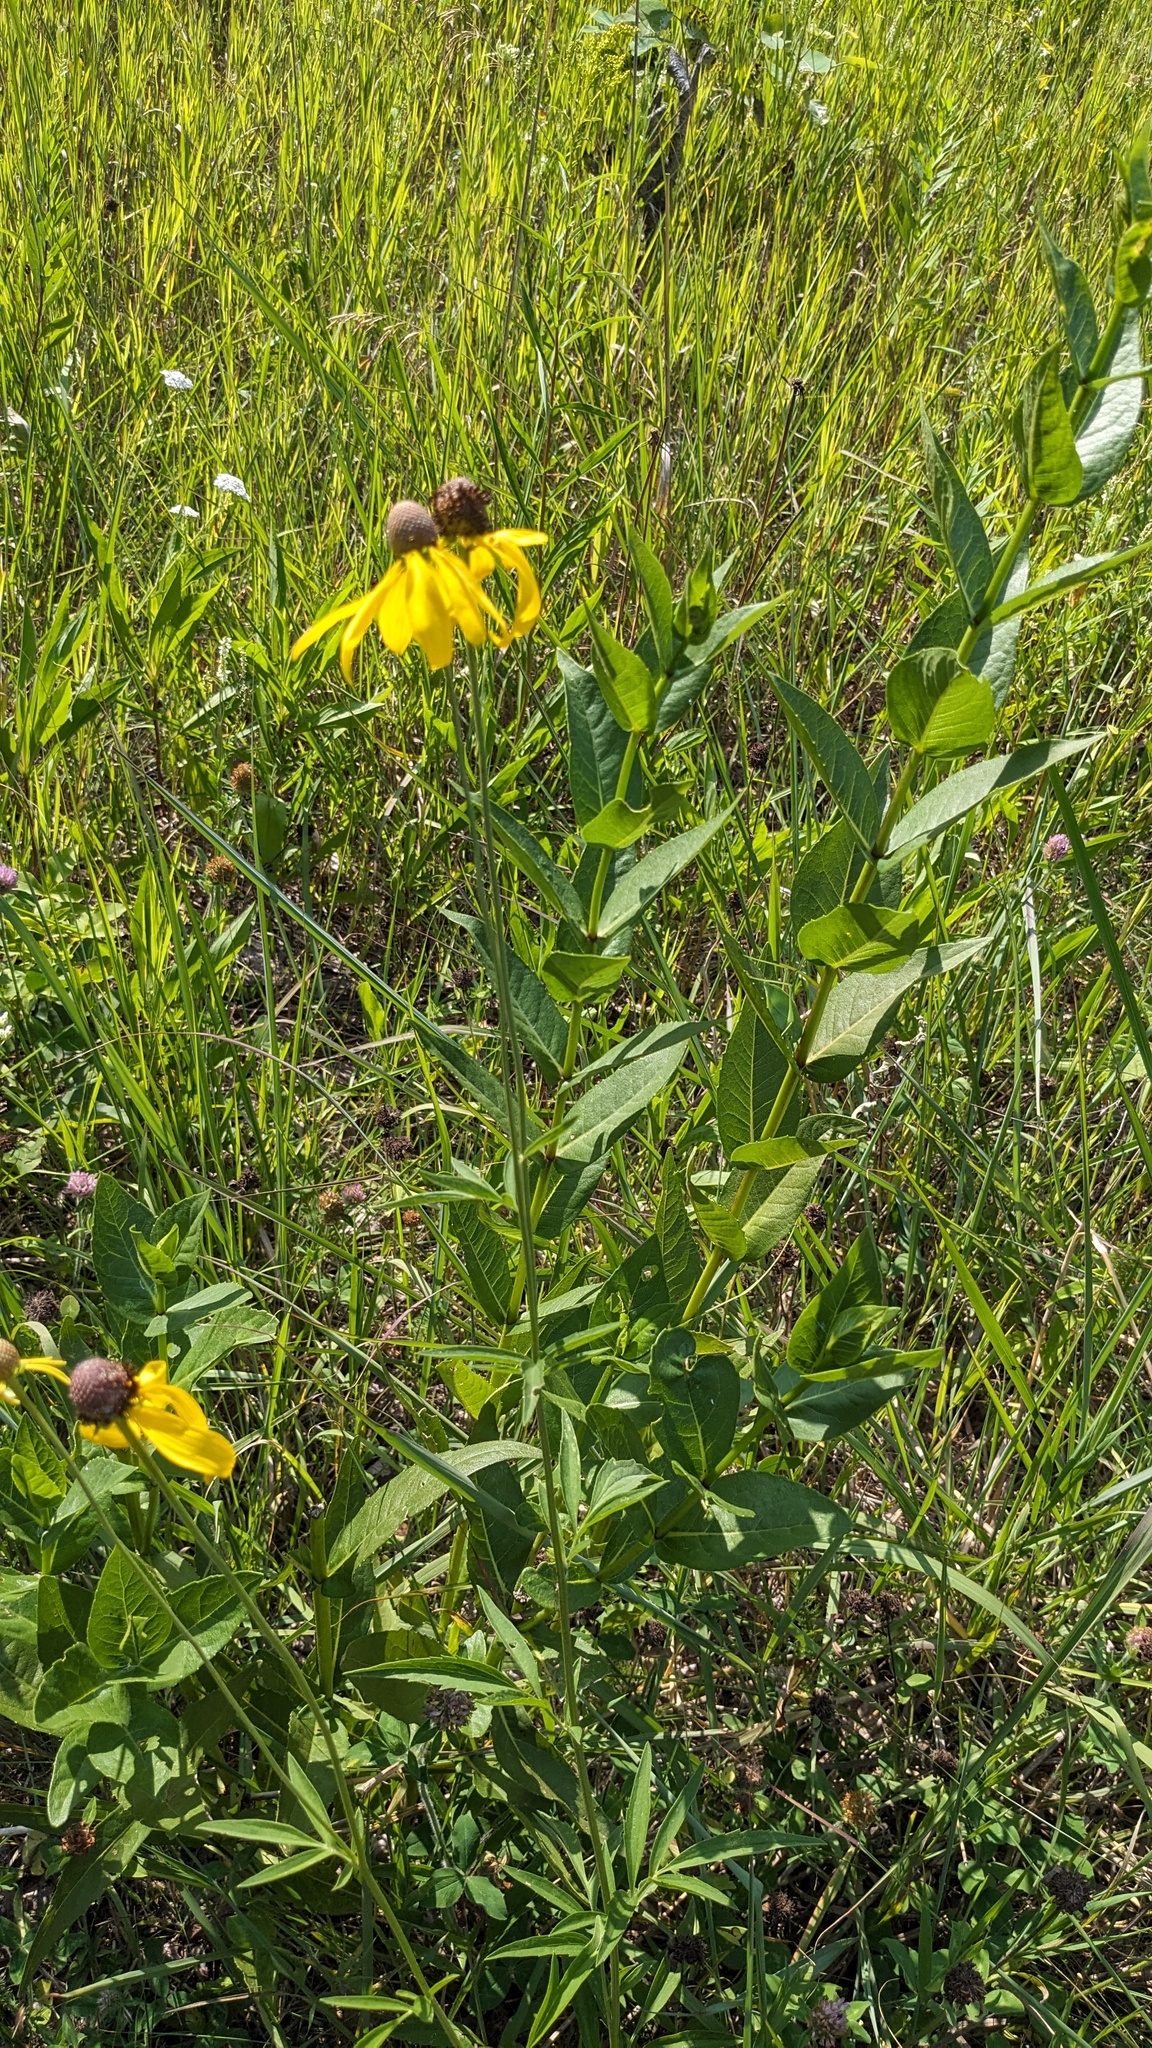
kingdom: Plantae
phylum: Tracheophyta
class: Magnoliopsida
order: Asterales
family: Asteraceae
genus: Ratibida
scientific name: Ratibida pinnata
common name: Drooping prairie-coneflower
